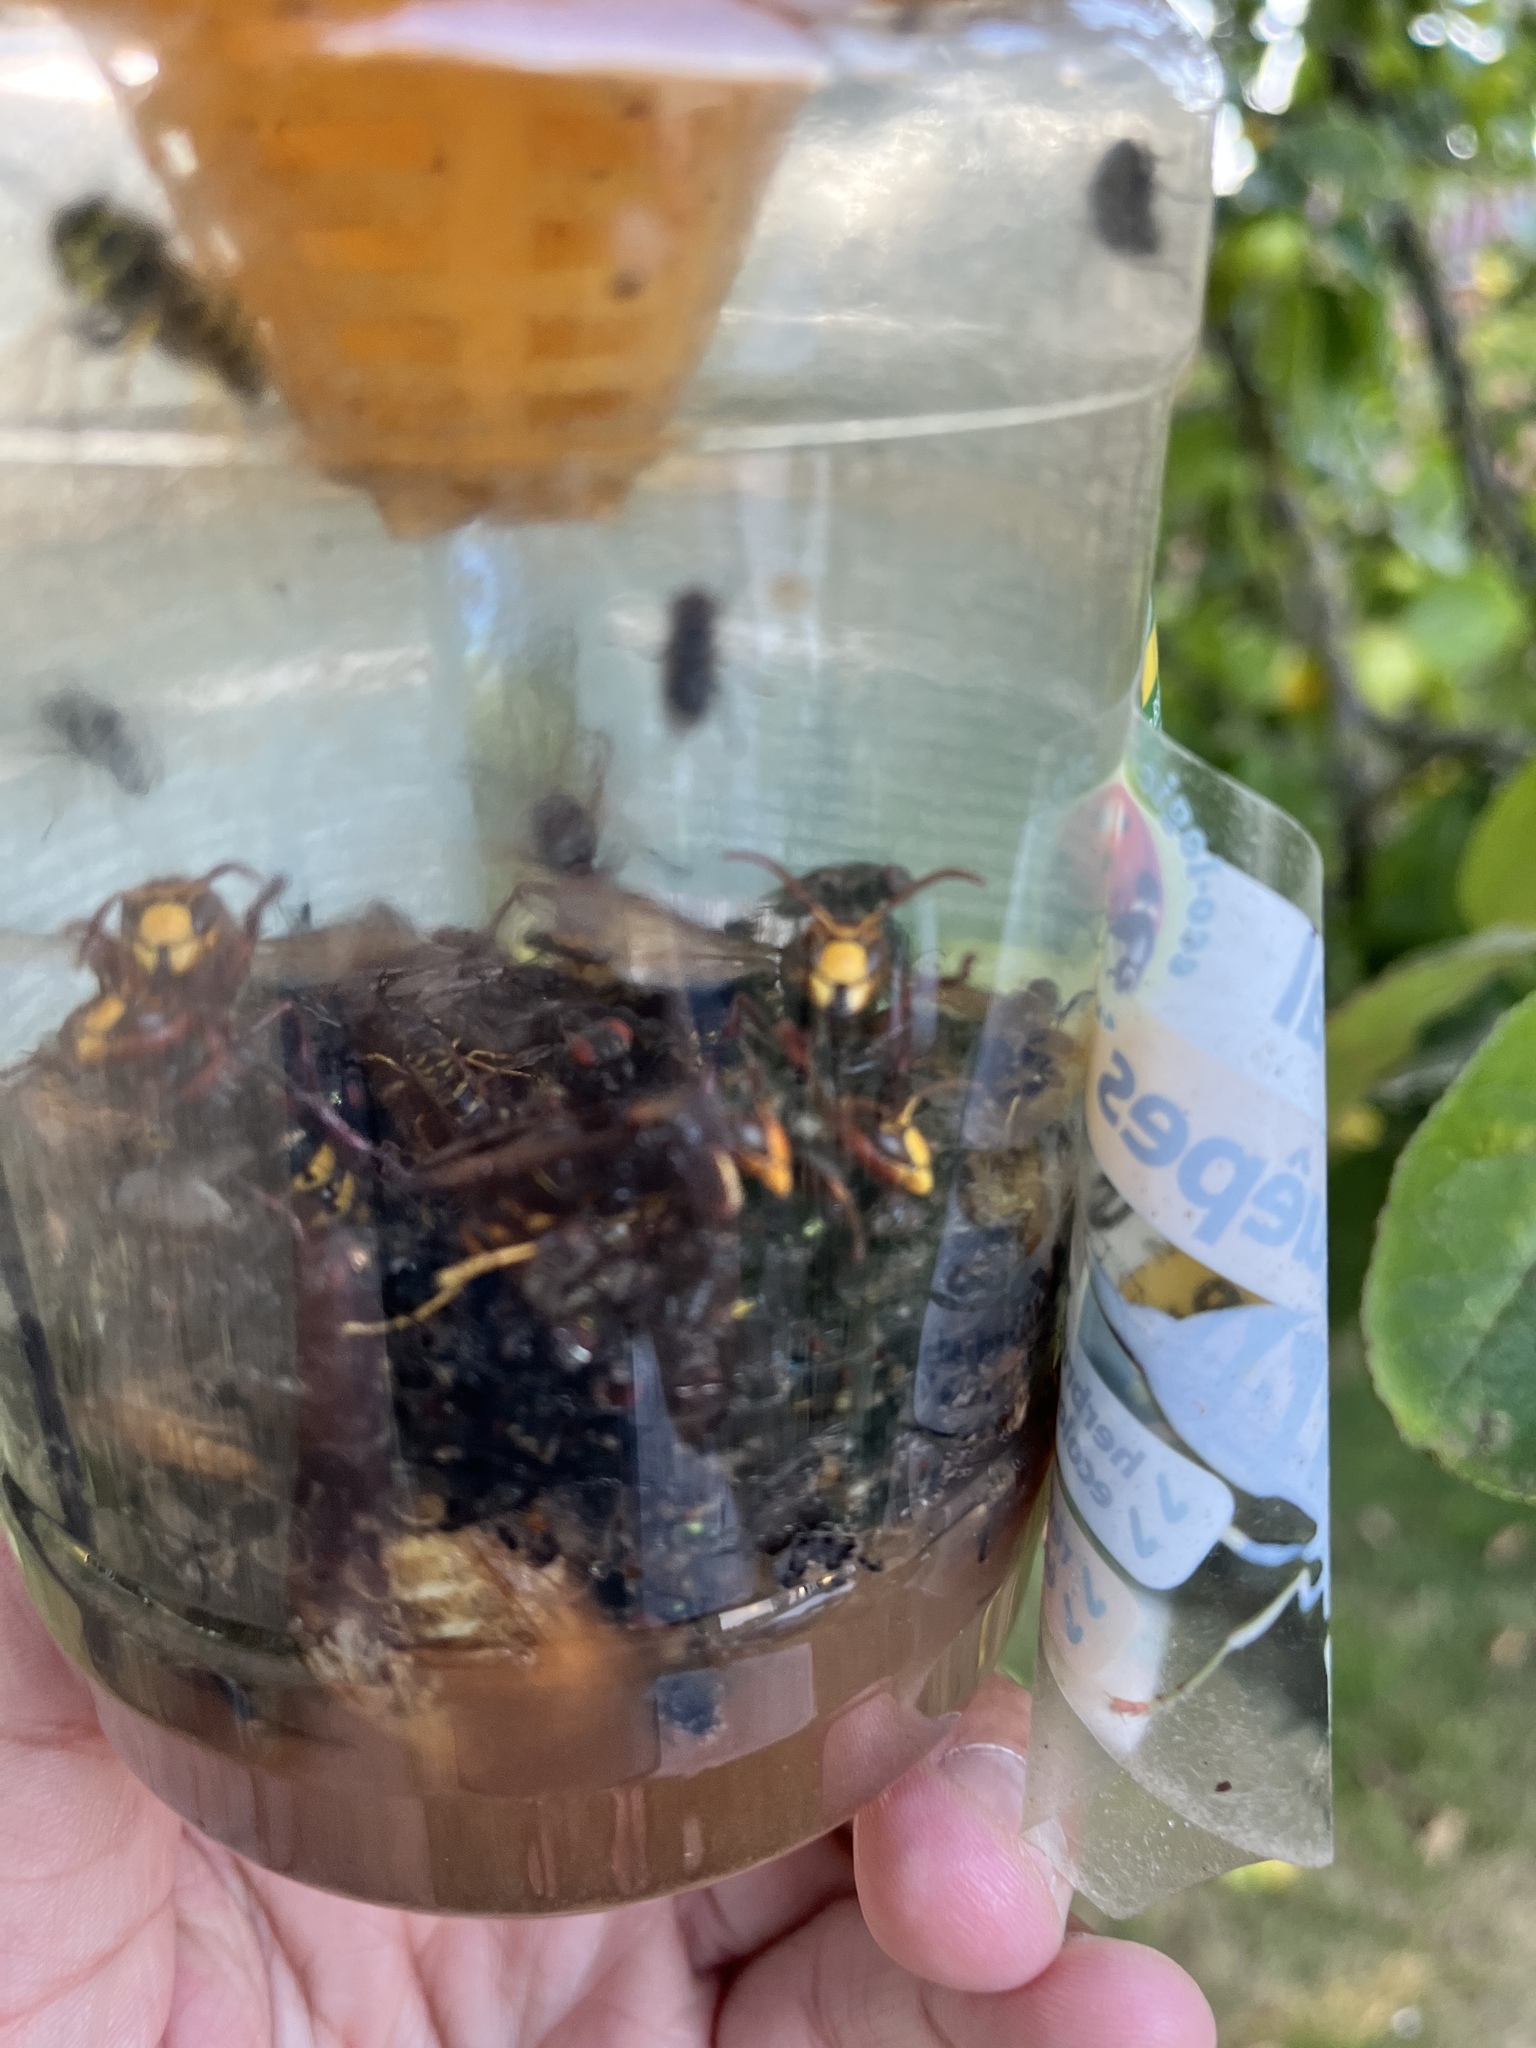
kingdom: Animalia
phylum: Arthropoda
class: Insecta
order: Hymenoptera
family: Vespidae
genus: Vespa
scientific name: Vespa crabro
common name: Hornet
